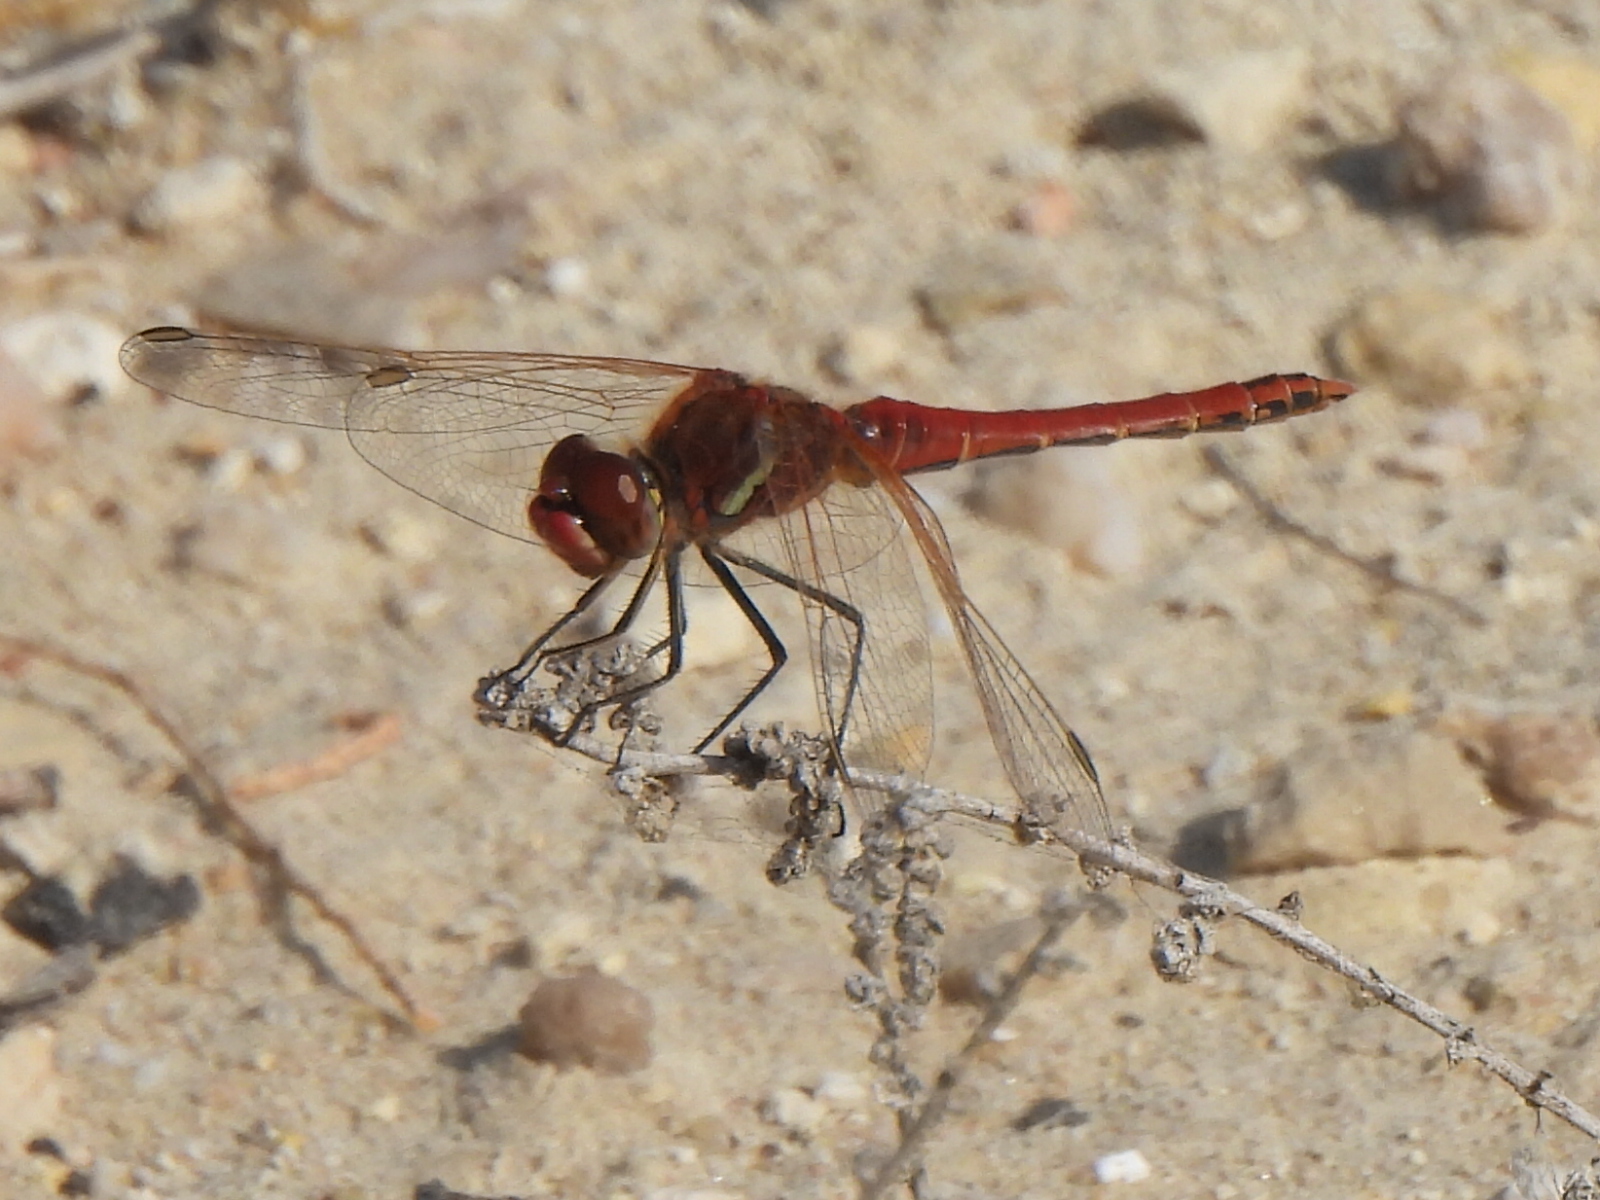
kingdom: Animalia
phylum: Arthropoda
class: Insecta
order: Odonata
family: Libellulidae
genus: Sympetrum
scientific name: Sympetrum fonscolombii
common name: Red-veined darter
